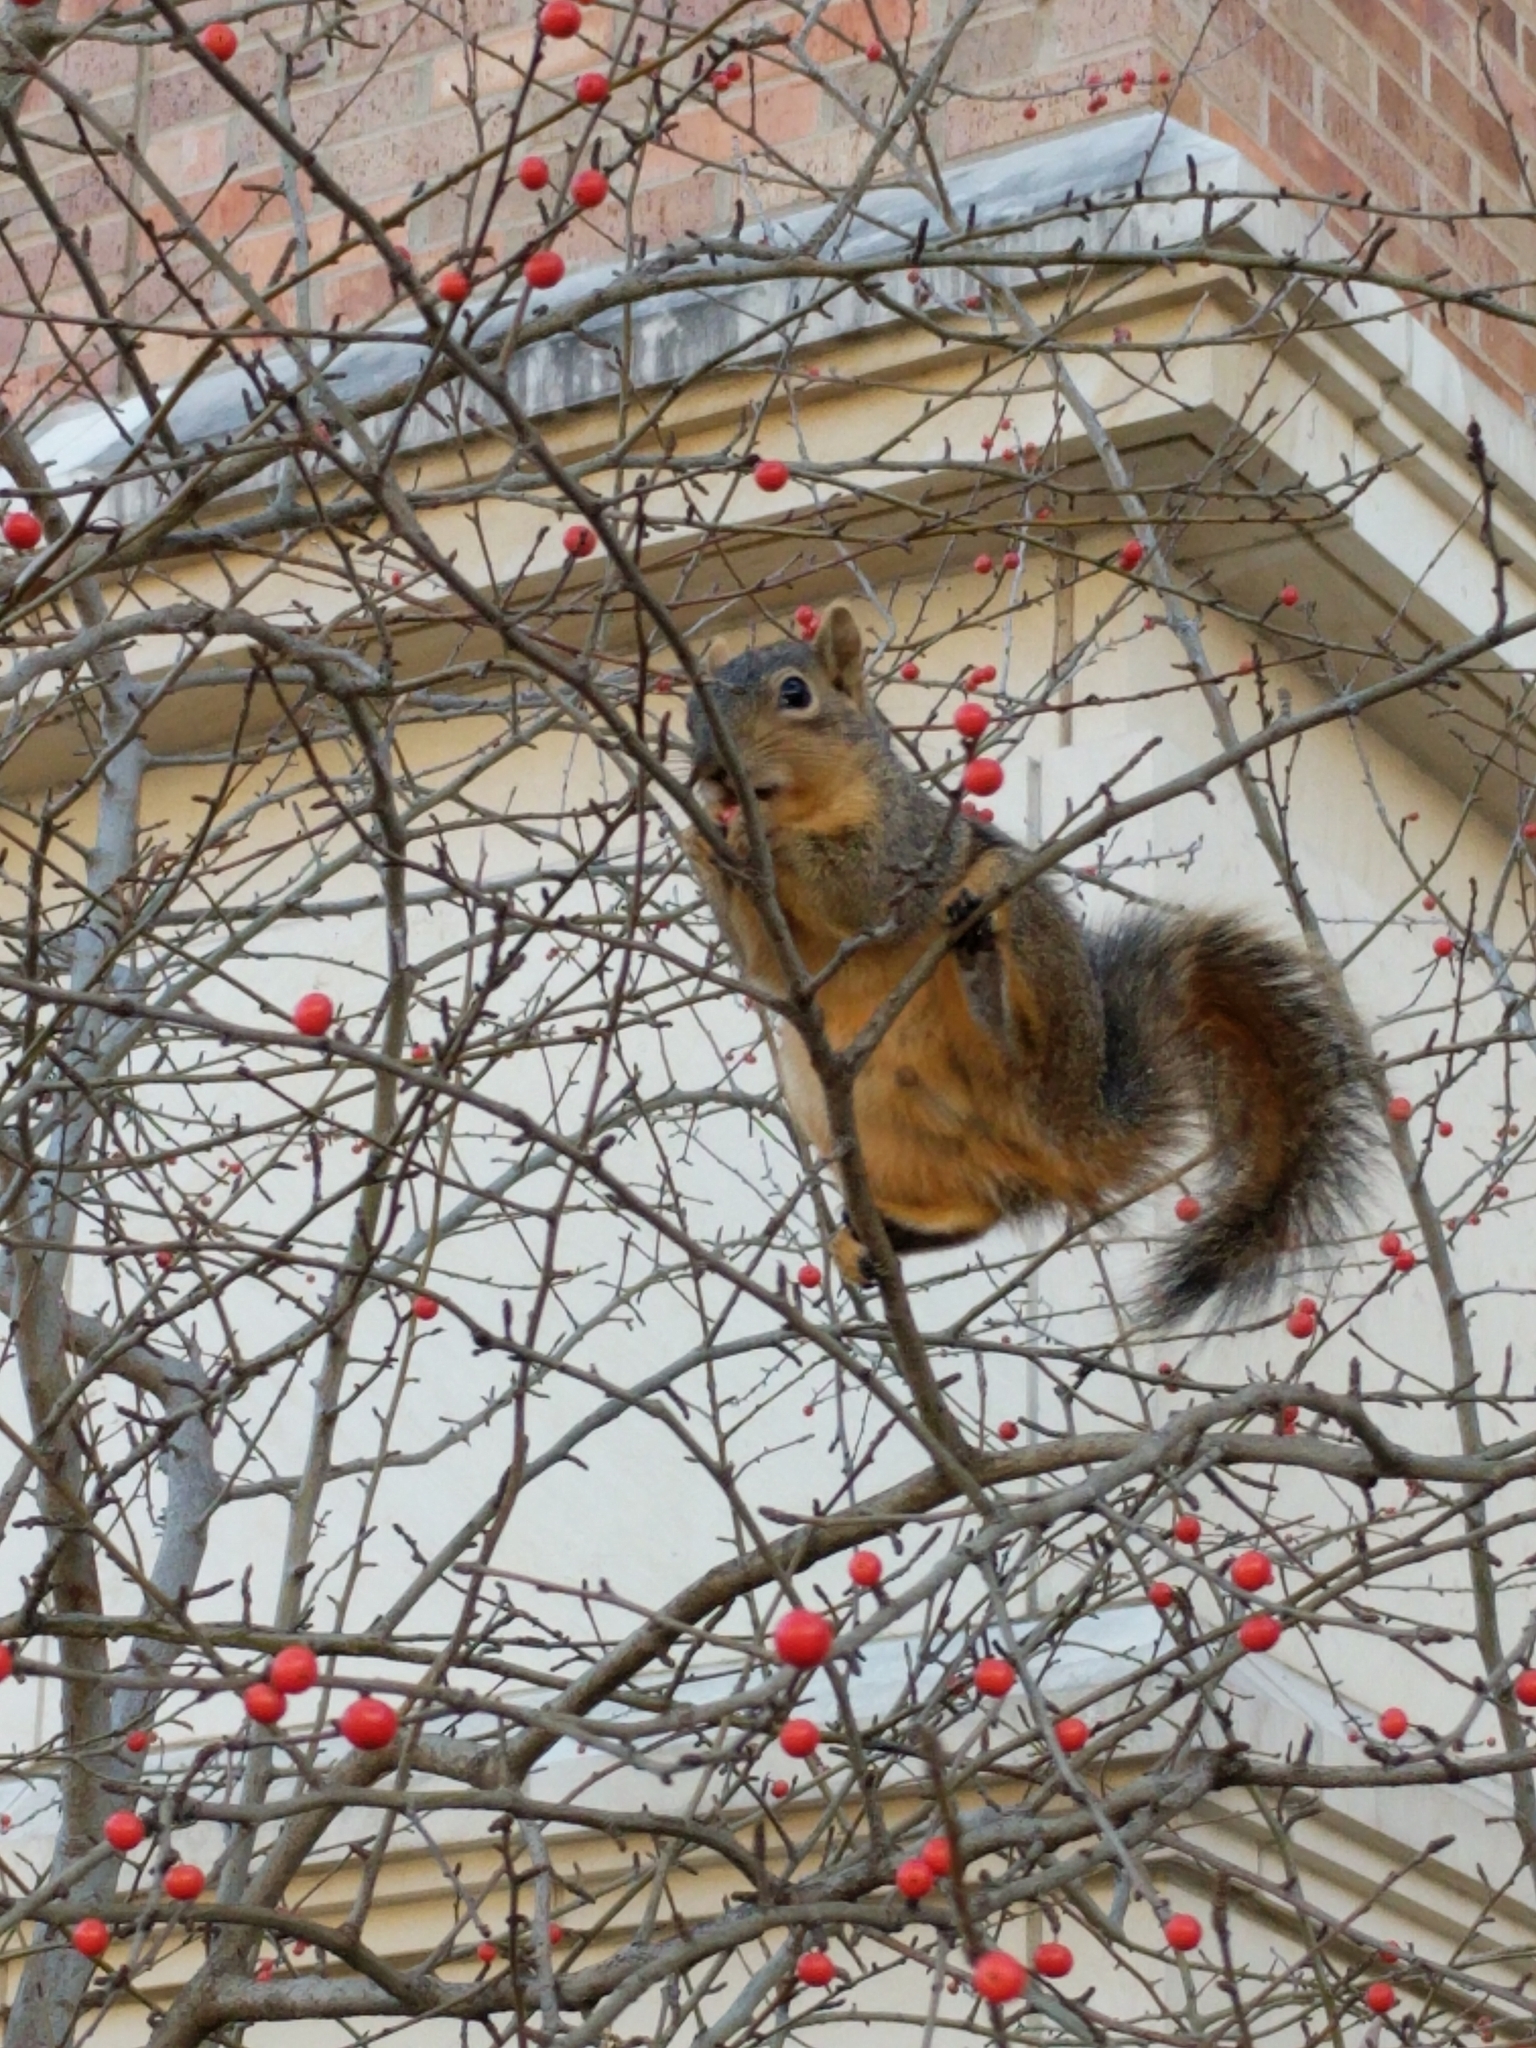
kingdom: Animalia
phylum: Chordata
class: Mammalia
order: Rodentia
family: Sciuridae
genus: Sciurus
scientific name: Sciurus niger
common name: Fox squirrel
